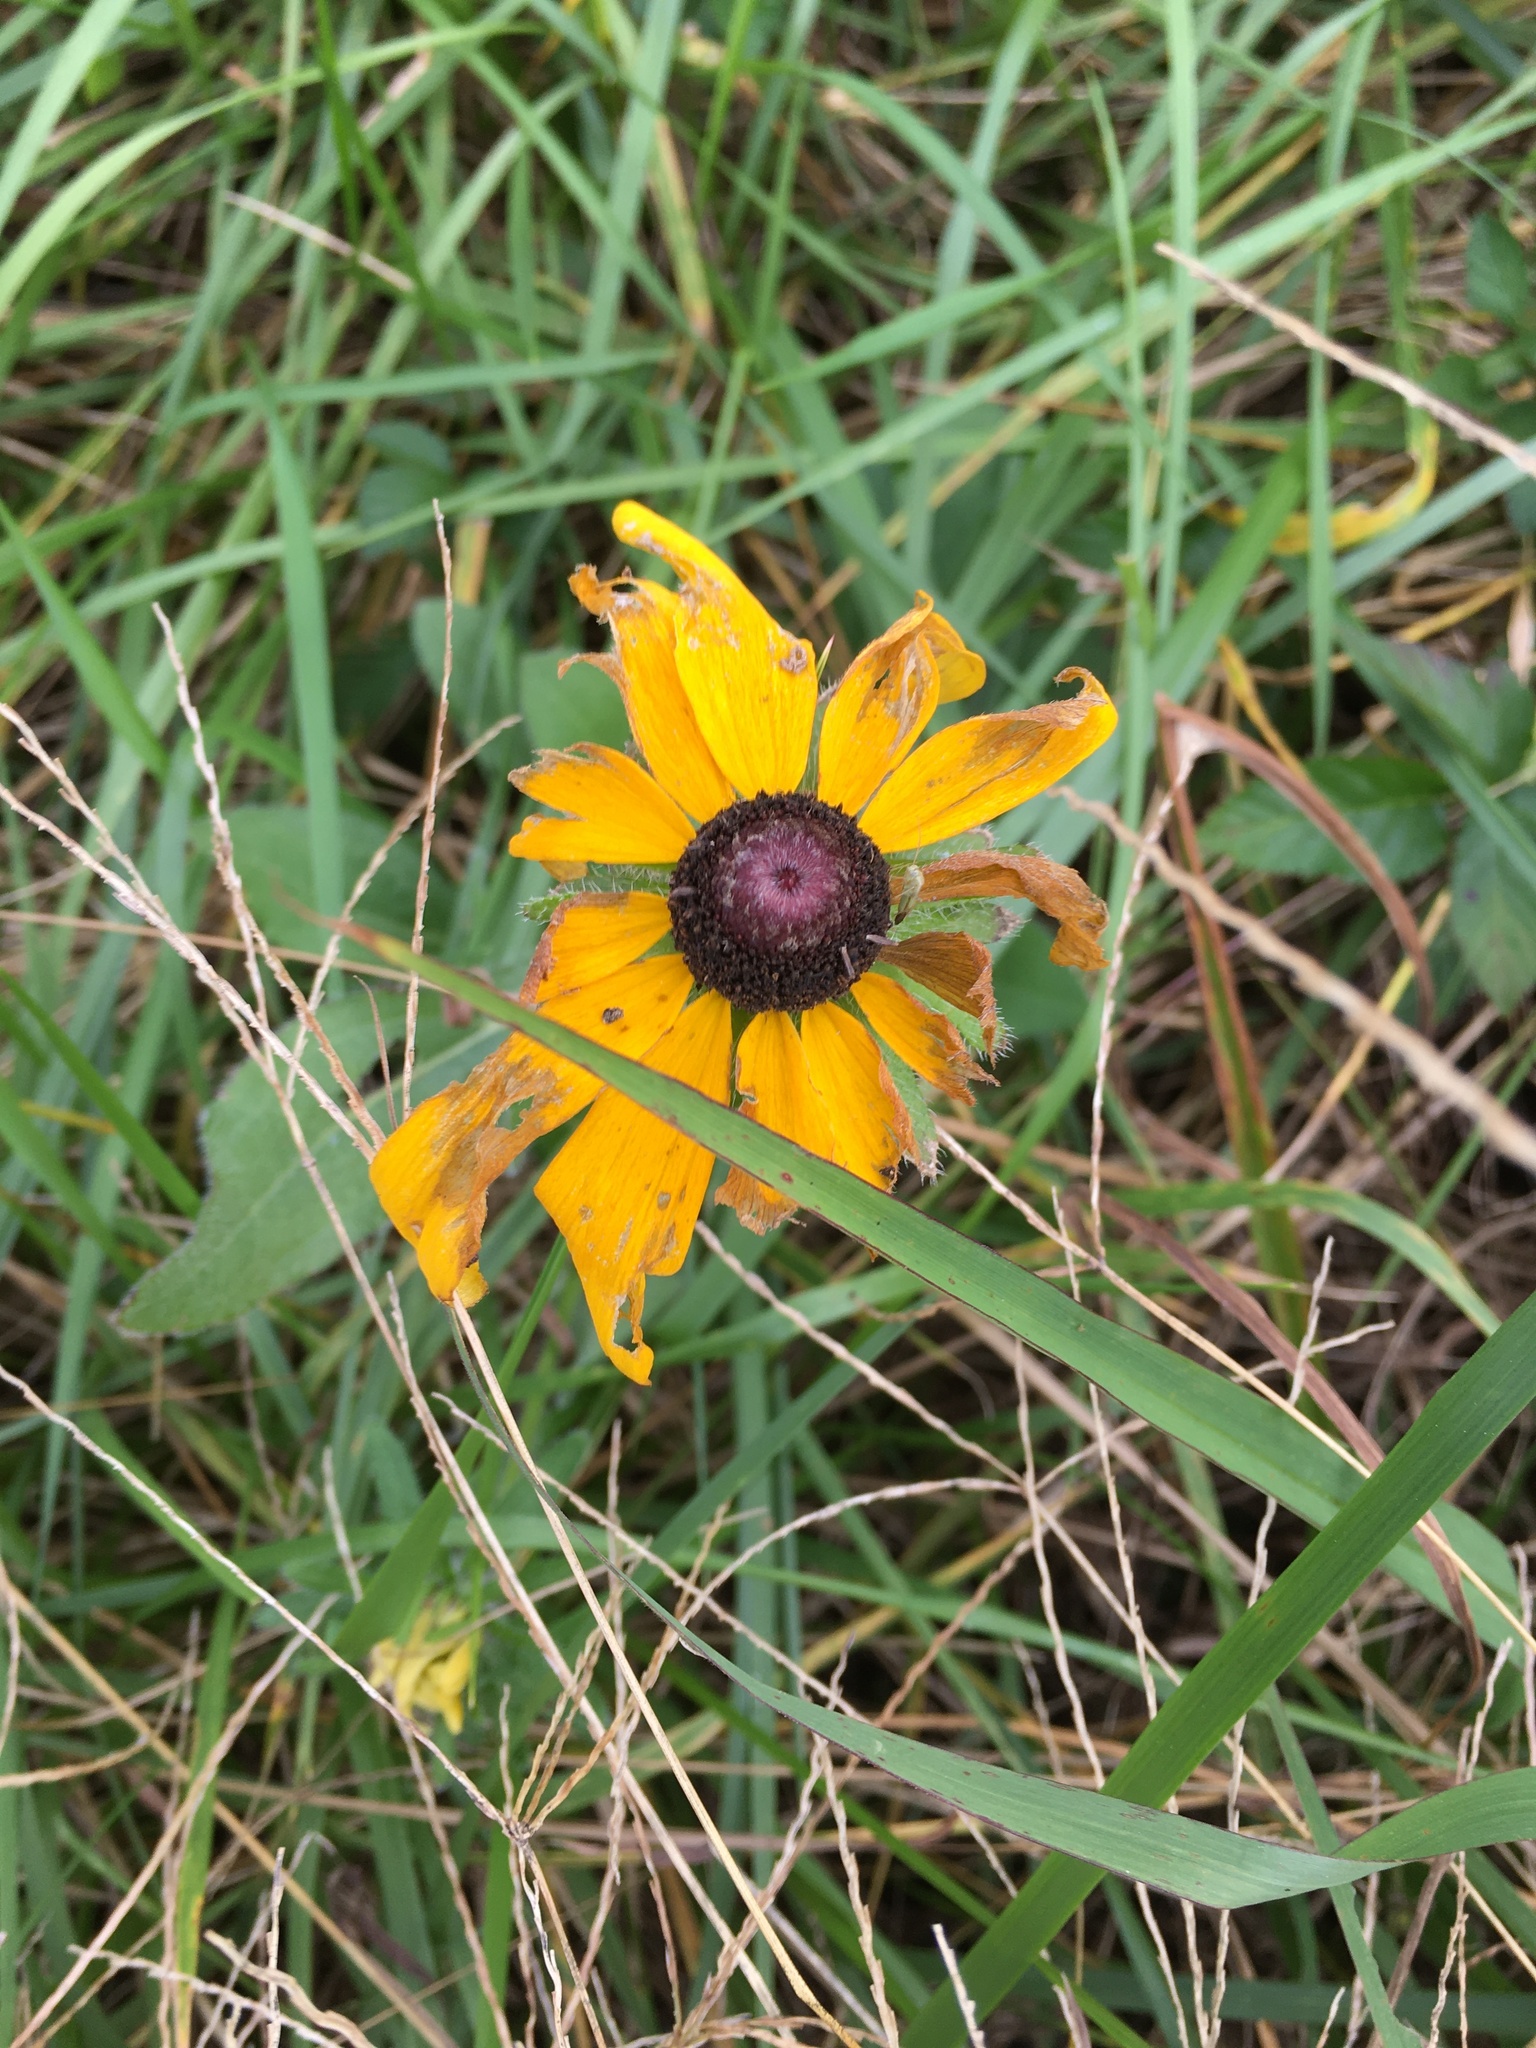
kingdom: Plantae
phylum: Tracheophyta
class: Magnoliopsida
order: Asterales
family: Asteraceae
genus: Rudbeckia
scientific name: Rudbeckia hirta
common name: Black-eyed-susan
